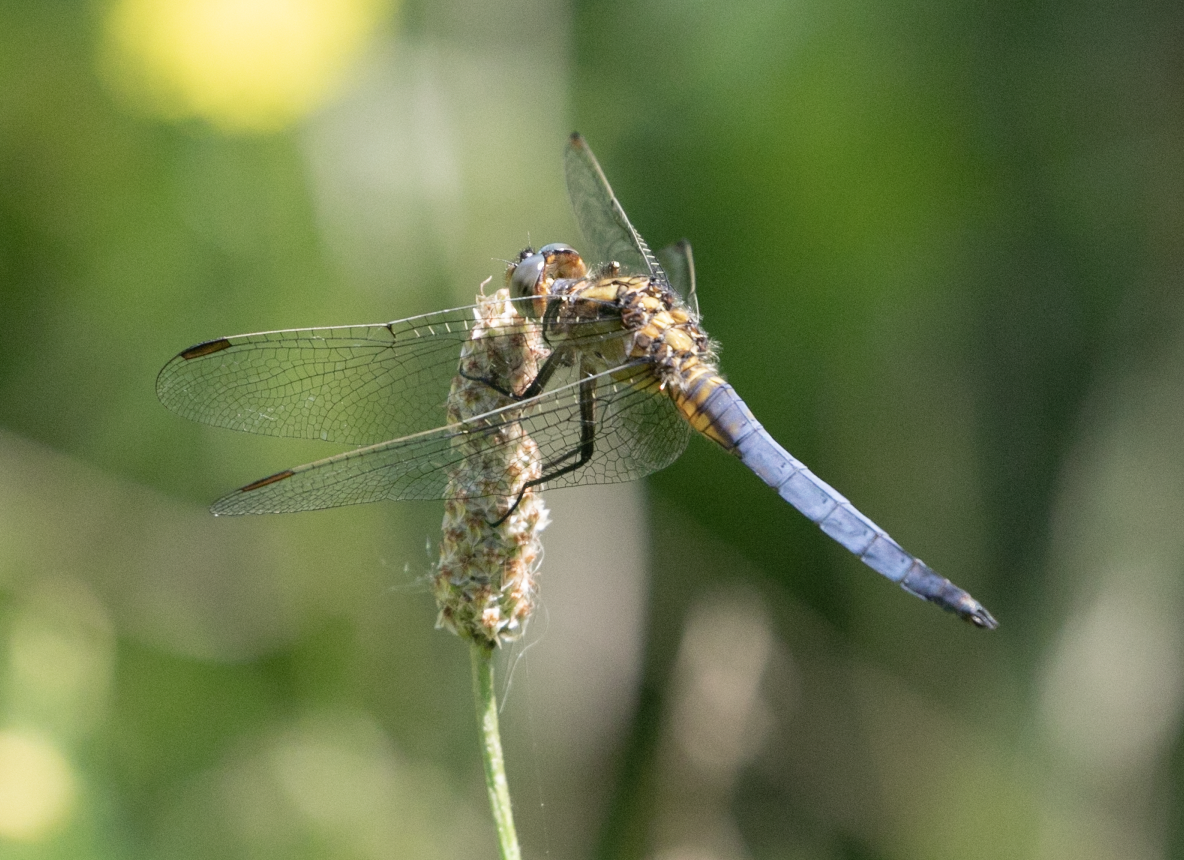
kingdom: Animalia
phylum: Arthropoda
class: Insecta
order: Odonata
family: Libellulidae
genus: Orthetrum
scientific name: Orthetrum coerulescens
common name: Keeled skimmer
